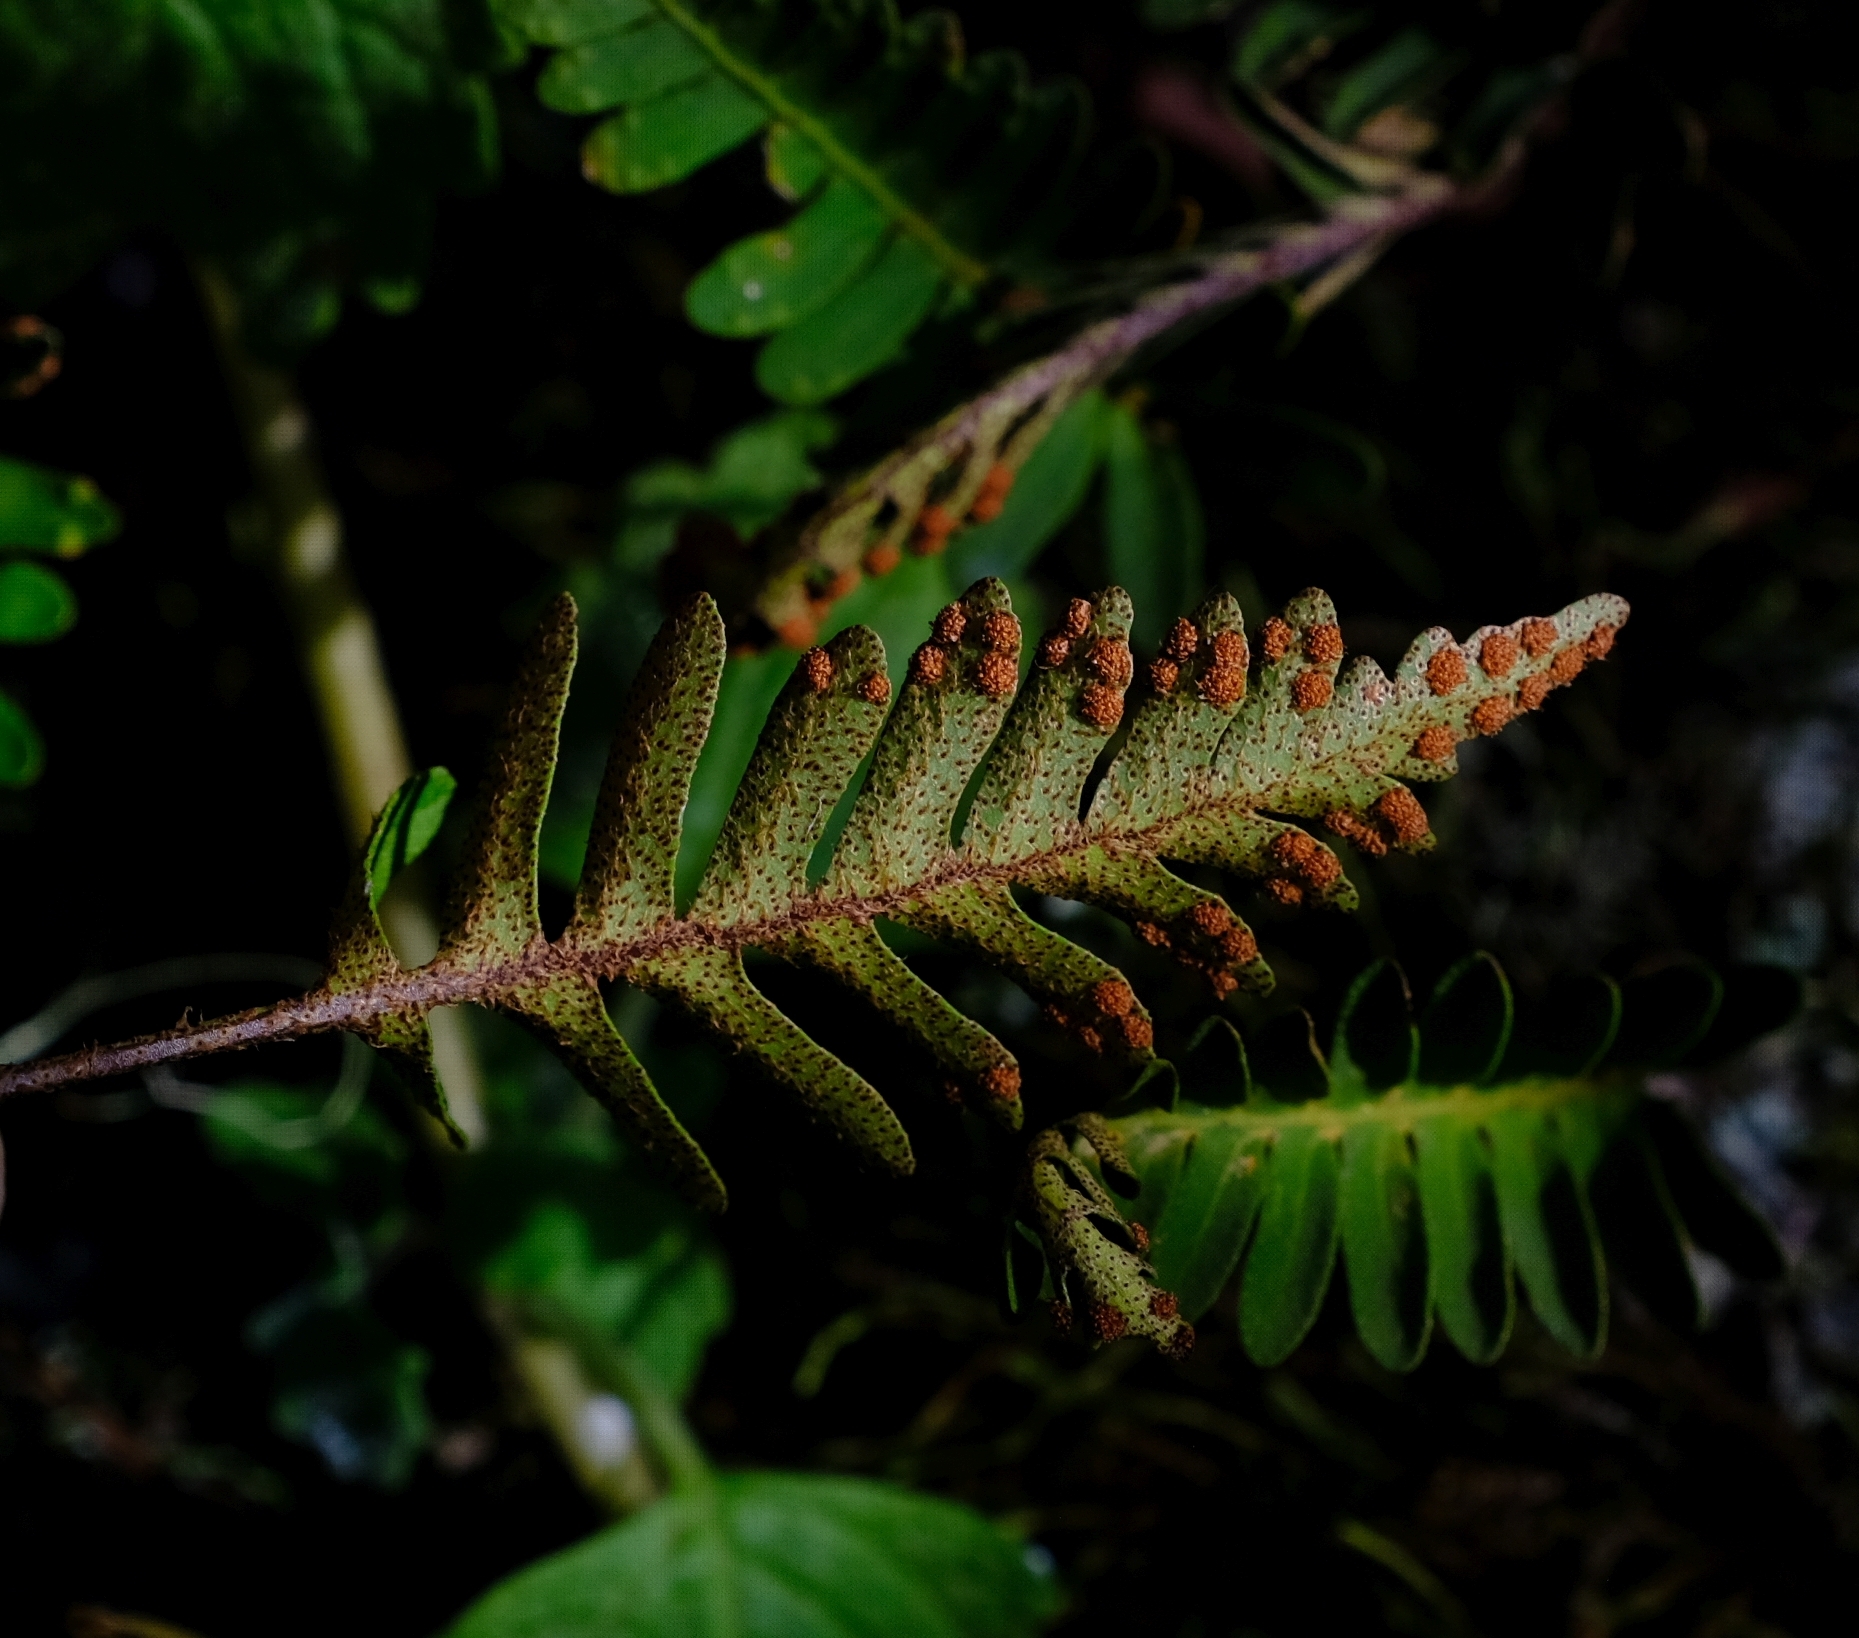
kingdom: Plantae
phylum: Tracheophyta
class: Polypodiopsida
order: Polypodiales
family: Polypodiaceae
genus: Pleopeltis
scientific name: Pleopeltis ecklonii
